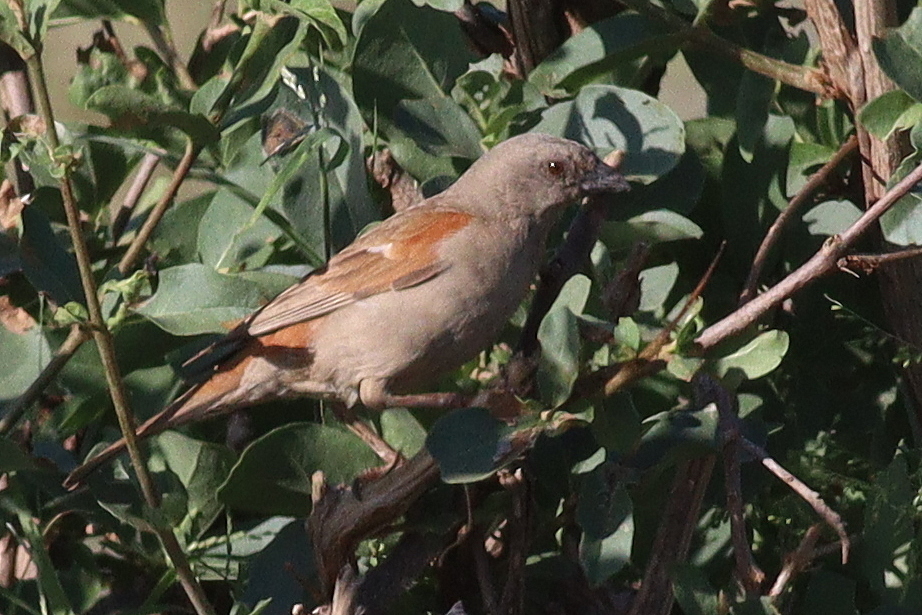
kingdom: Animalia
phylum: Chordata
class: Aves
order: Passeriformes
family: Passeridae
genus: Passer
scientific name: Passer gongonensis
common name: Parrot-billed sparrow
